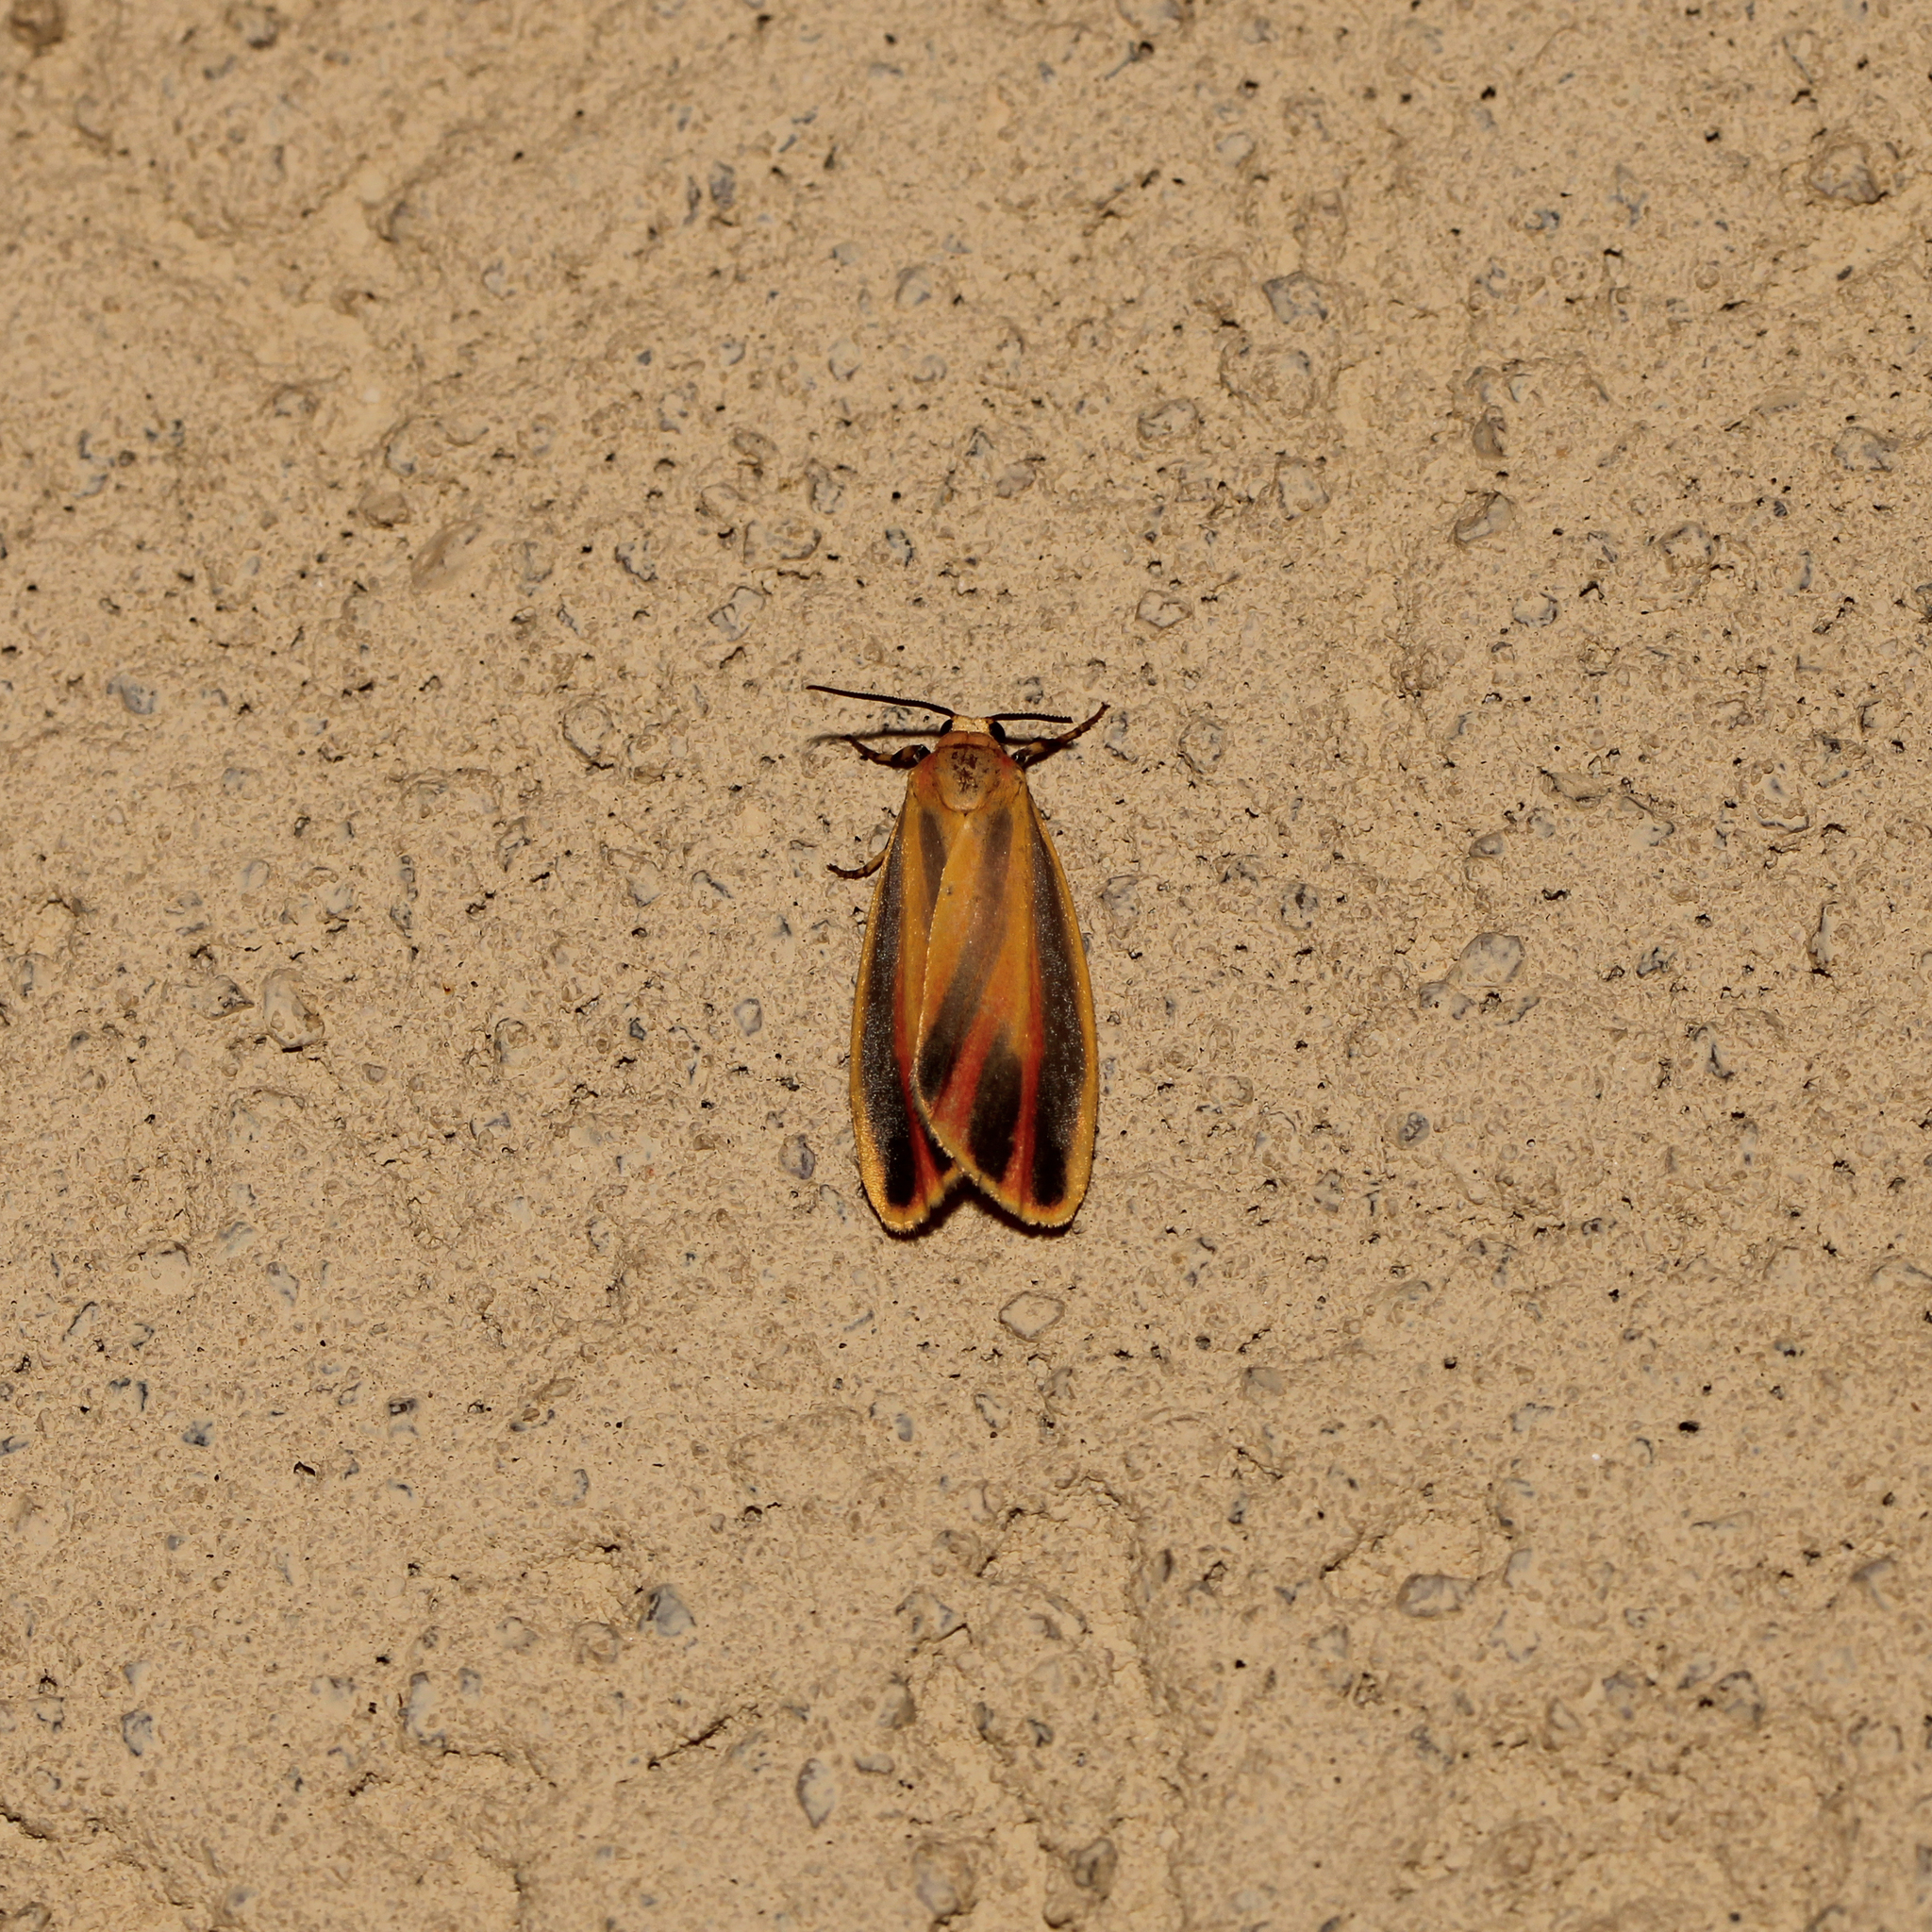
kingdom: Animalia
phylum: Arthropoda
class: Insecta
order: Lepidoptera
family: Erebidae
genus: Hypoprepia
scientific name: Hypoprepia fucosa
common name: Painted lichen moth
